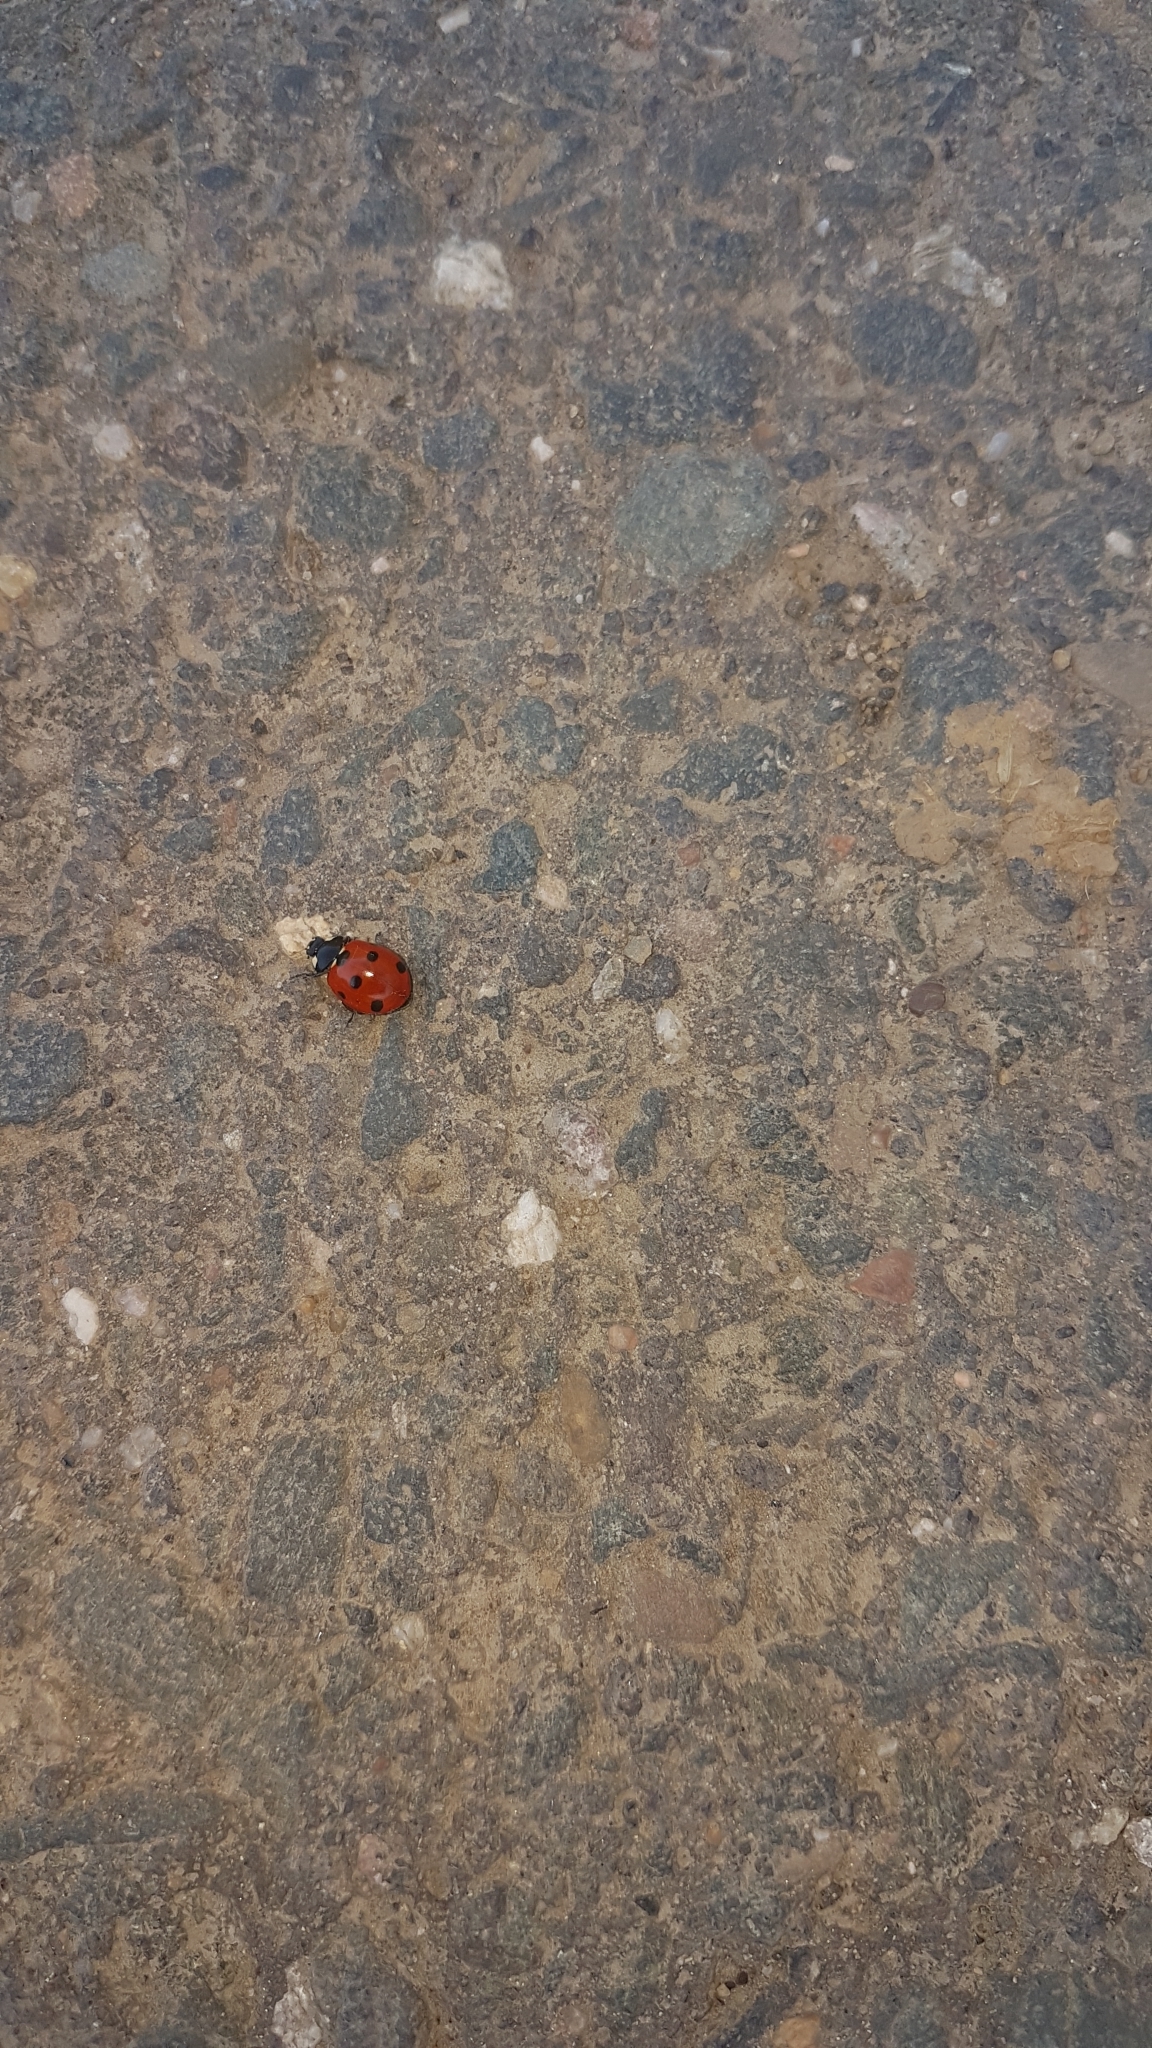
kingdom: Animalia
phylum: Arthropoda
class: Insecta
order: Coleoptera
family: Coccinellidae
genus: Coccinella
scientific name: Coccinella septempunctata
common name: Sevenspotted lady beetle
